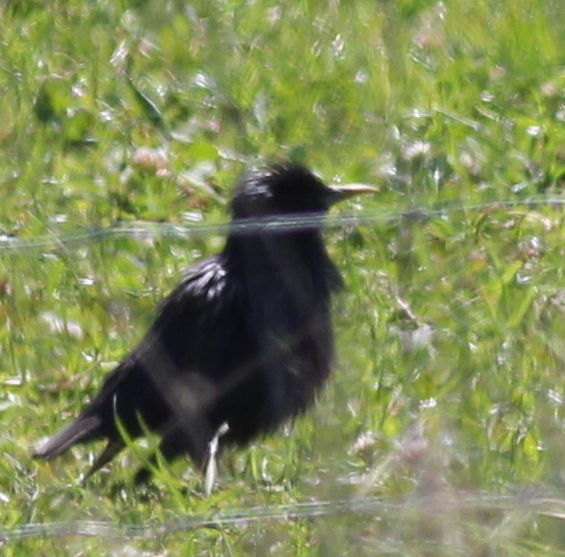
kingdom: Animalia
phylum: Chordata
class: Aves
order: Passeriformes
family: Sturnidae
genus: Sturnus
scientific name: Sturnus unicolor
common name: Spotless starling
